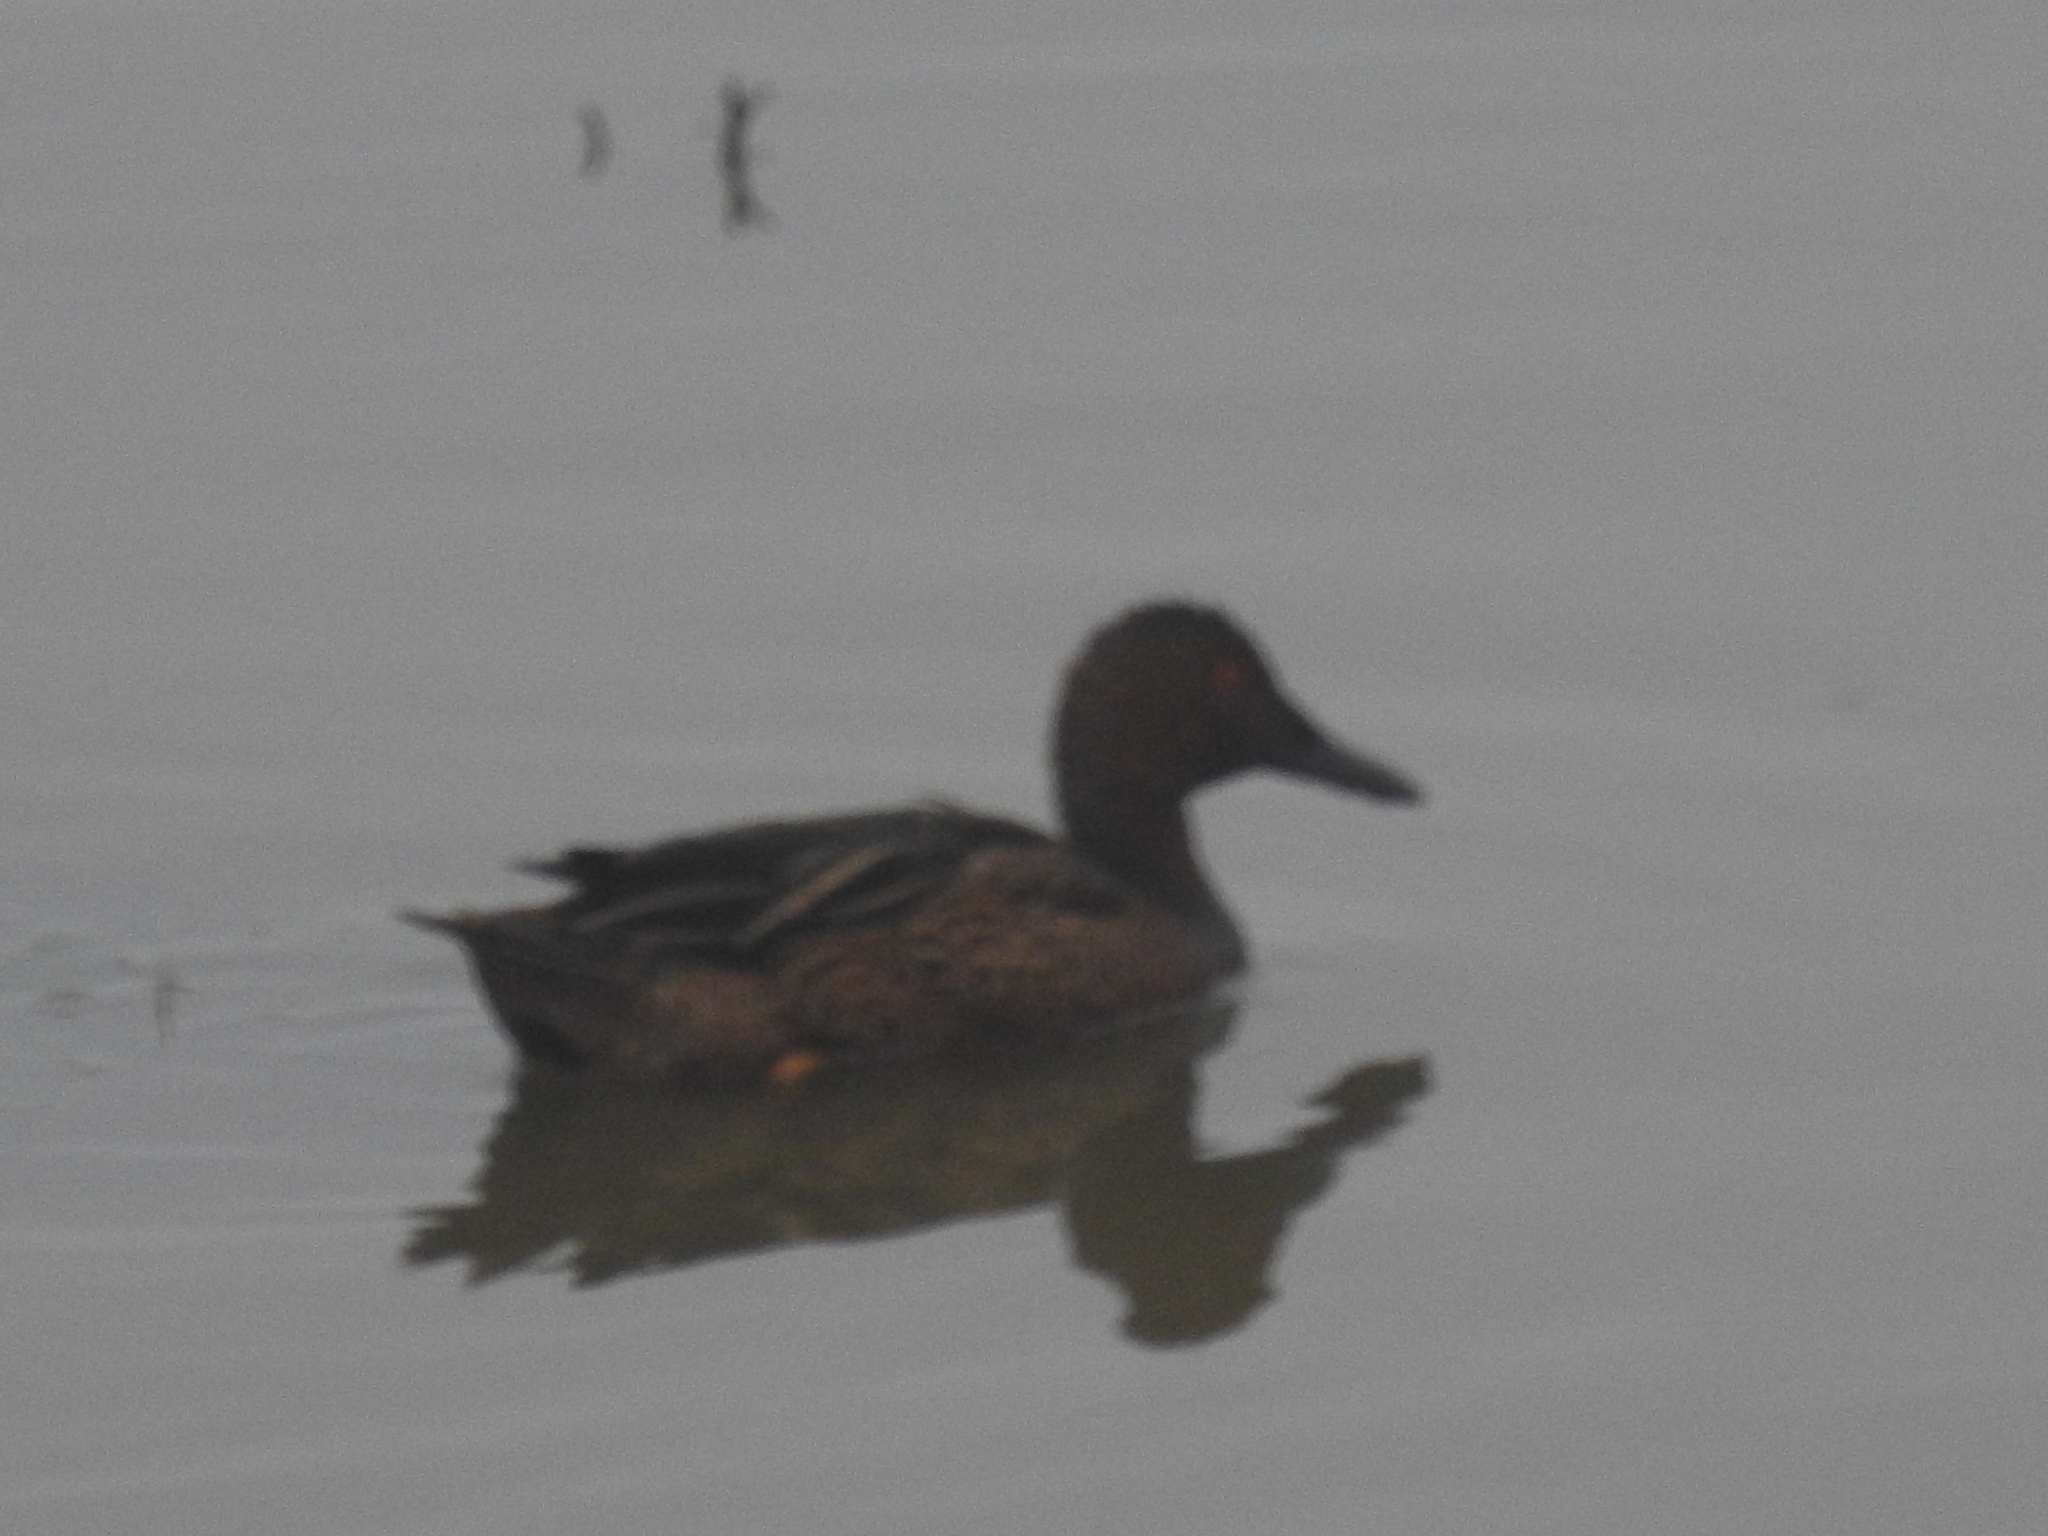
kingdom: Animalia
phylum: Chordata
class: Aves
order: Anseriformes
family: Anatidae
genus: Spatula
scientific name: Spatula cyanoptera
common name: Cinnamon teal
